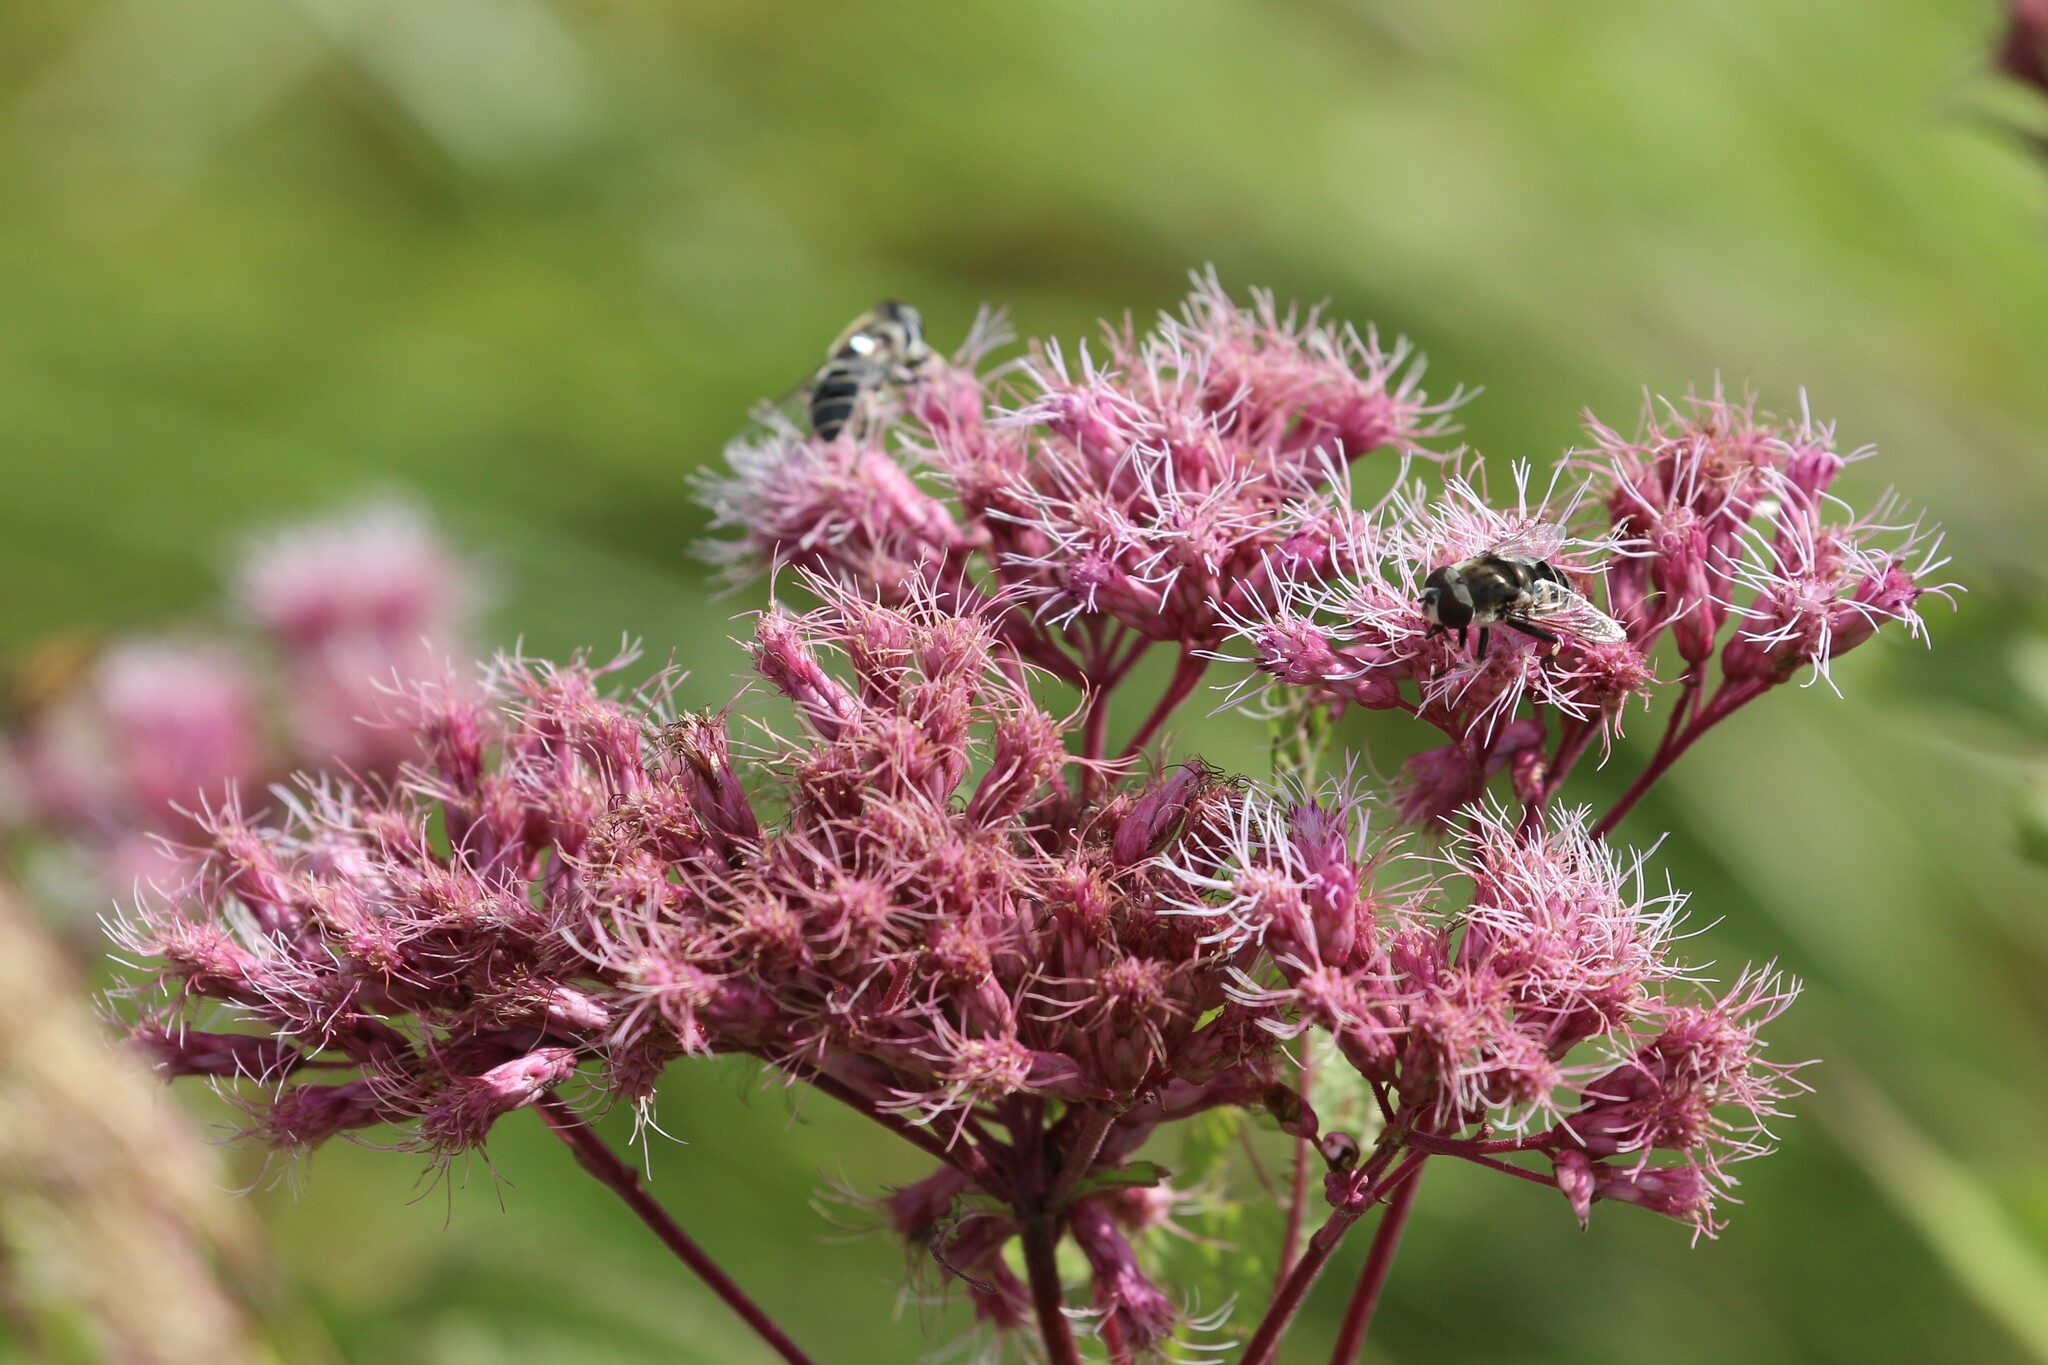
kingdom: Plantae
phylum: Tracheophyta
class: Magnoliopsida
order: Asterales
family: Asteraceae
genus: Eutrochium
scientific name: Eutrochium maculatum
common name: Spotted joe pye weed
